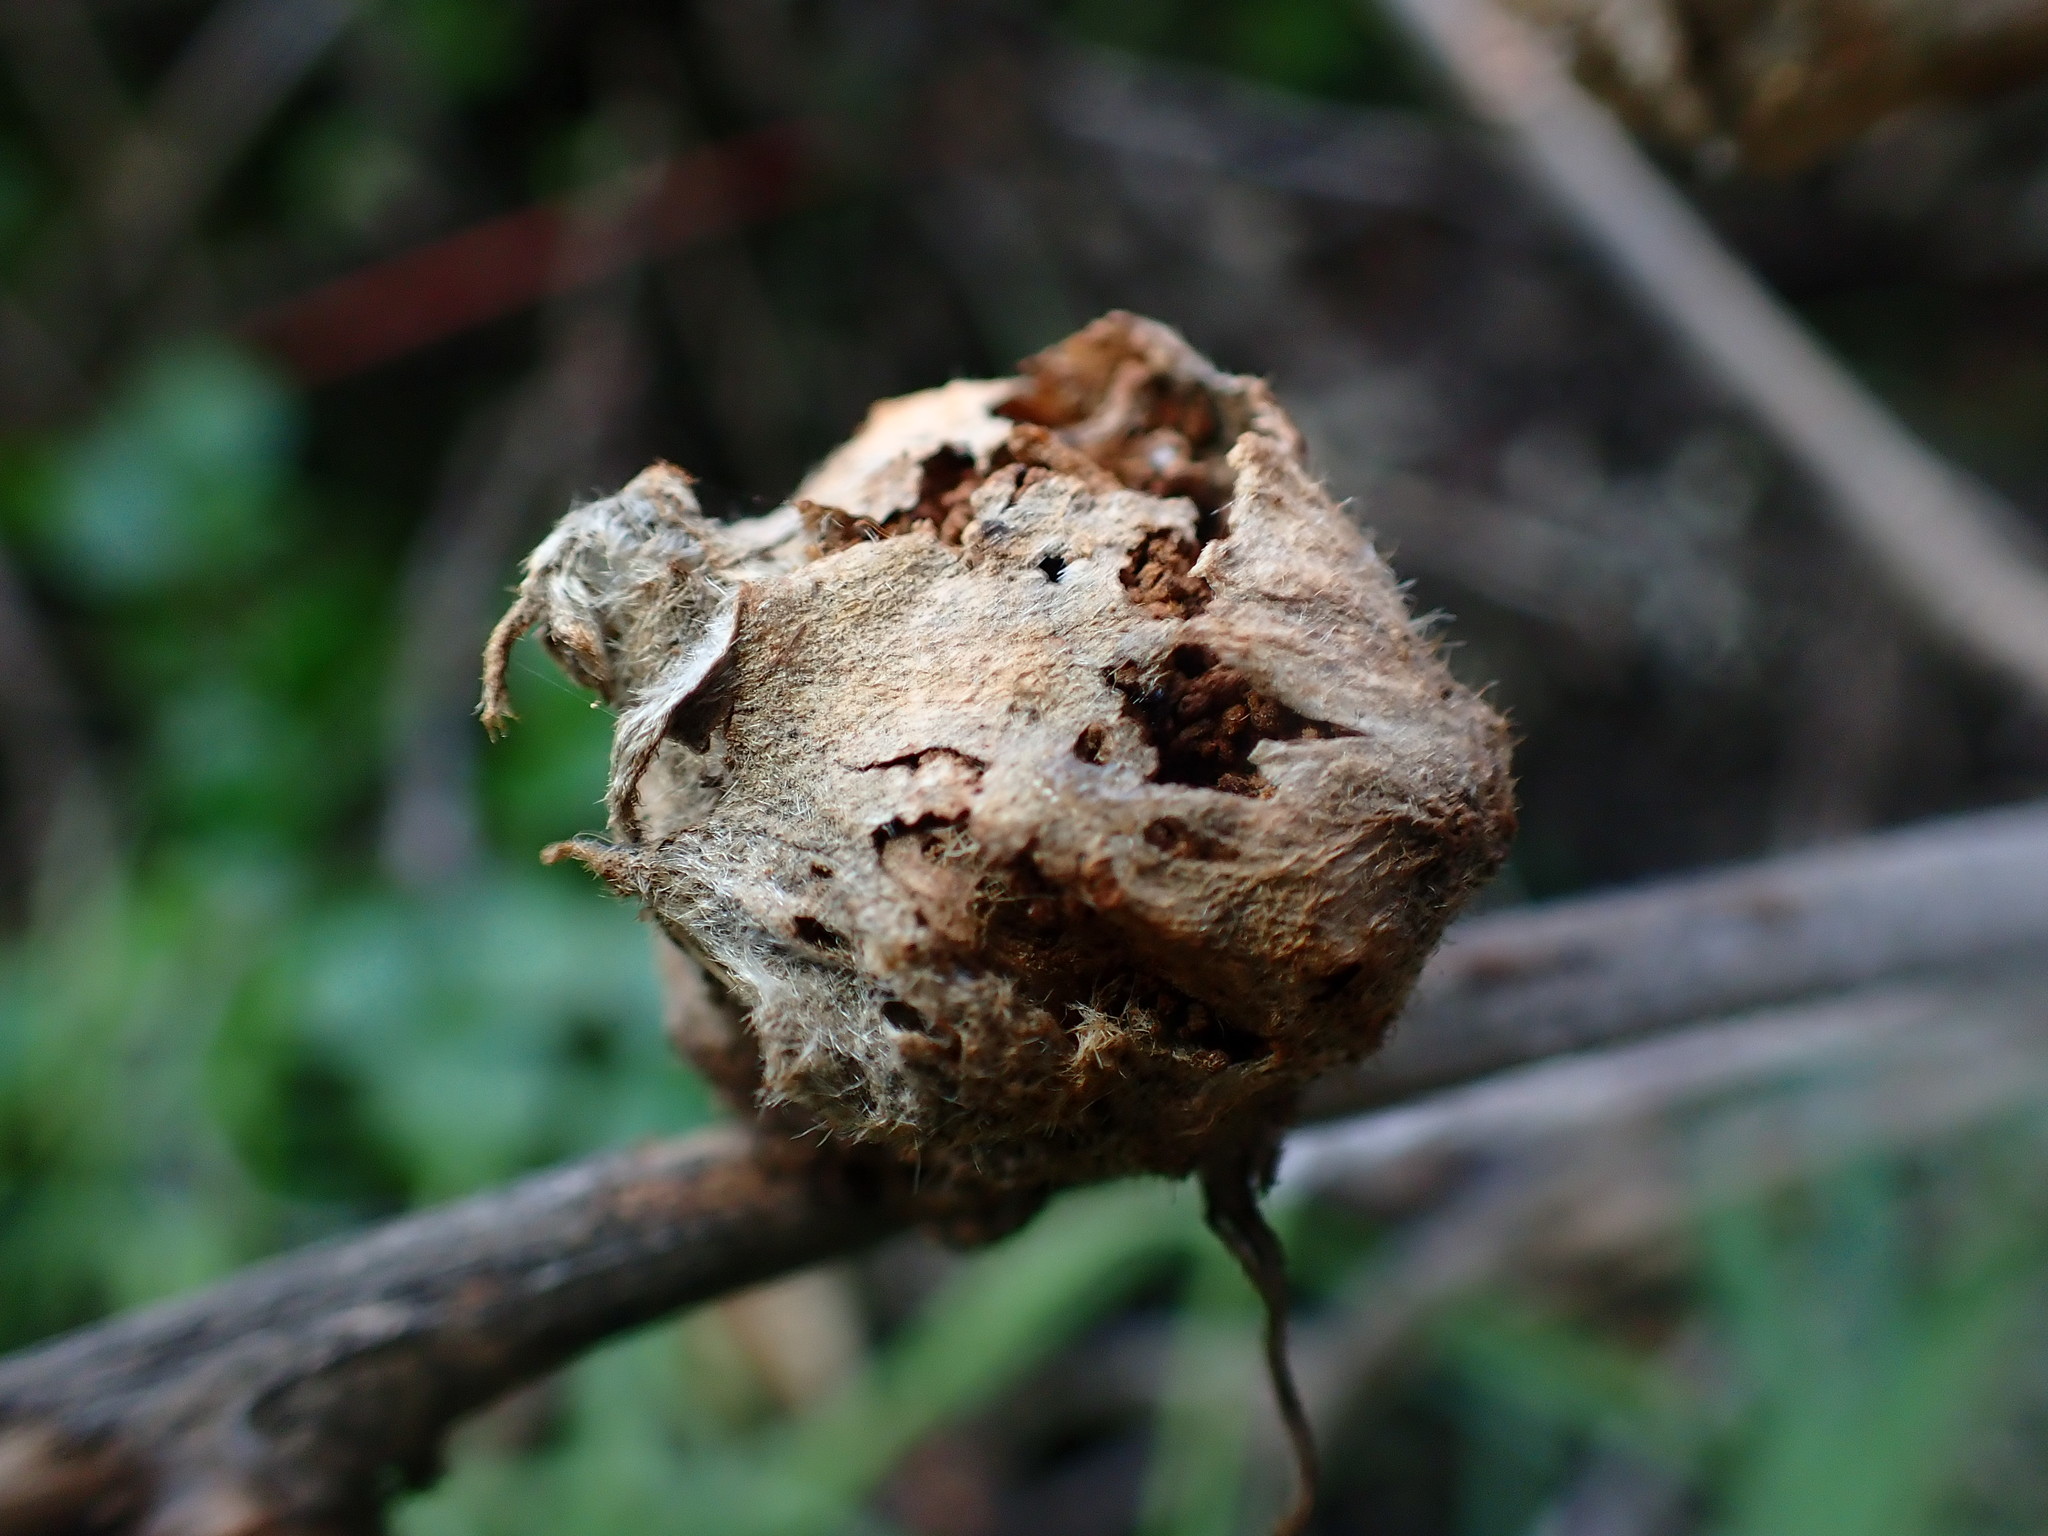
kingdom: Animalia
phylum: Arthropoda
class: Insecta
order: Diptera
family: Cecidomyiidae
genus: Dasineura
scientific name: Dasineura lupini
